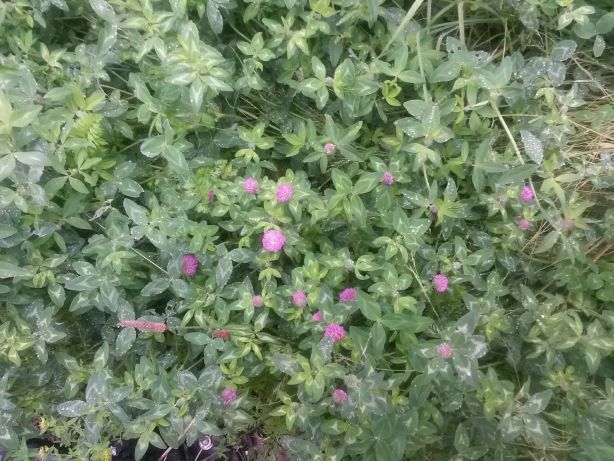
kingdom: Plantae
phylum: Tracheophyta
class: Magnoliopsida
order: Fabales
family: Fabaceae
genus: Trifolium
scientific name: Trifolium pratense
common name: Red clover
